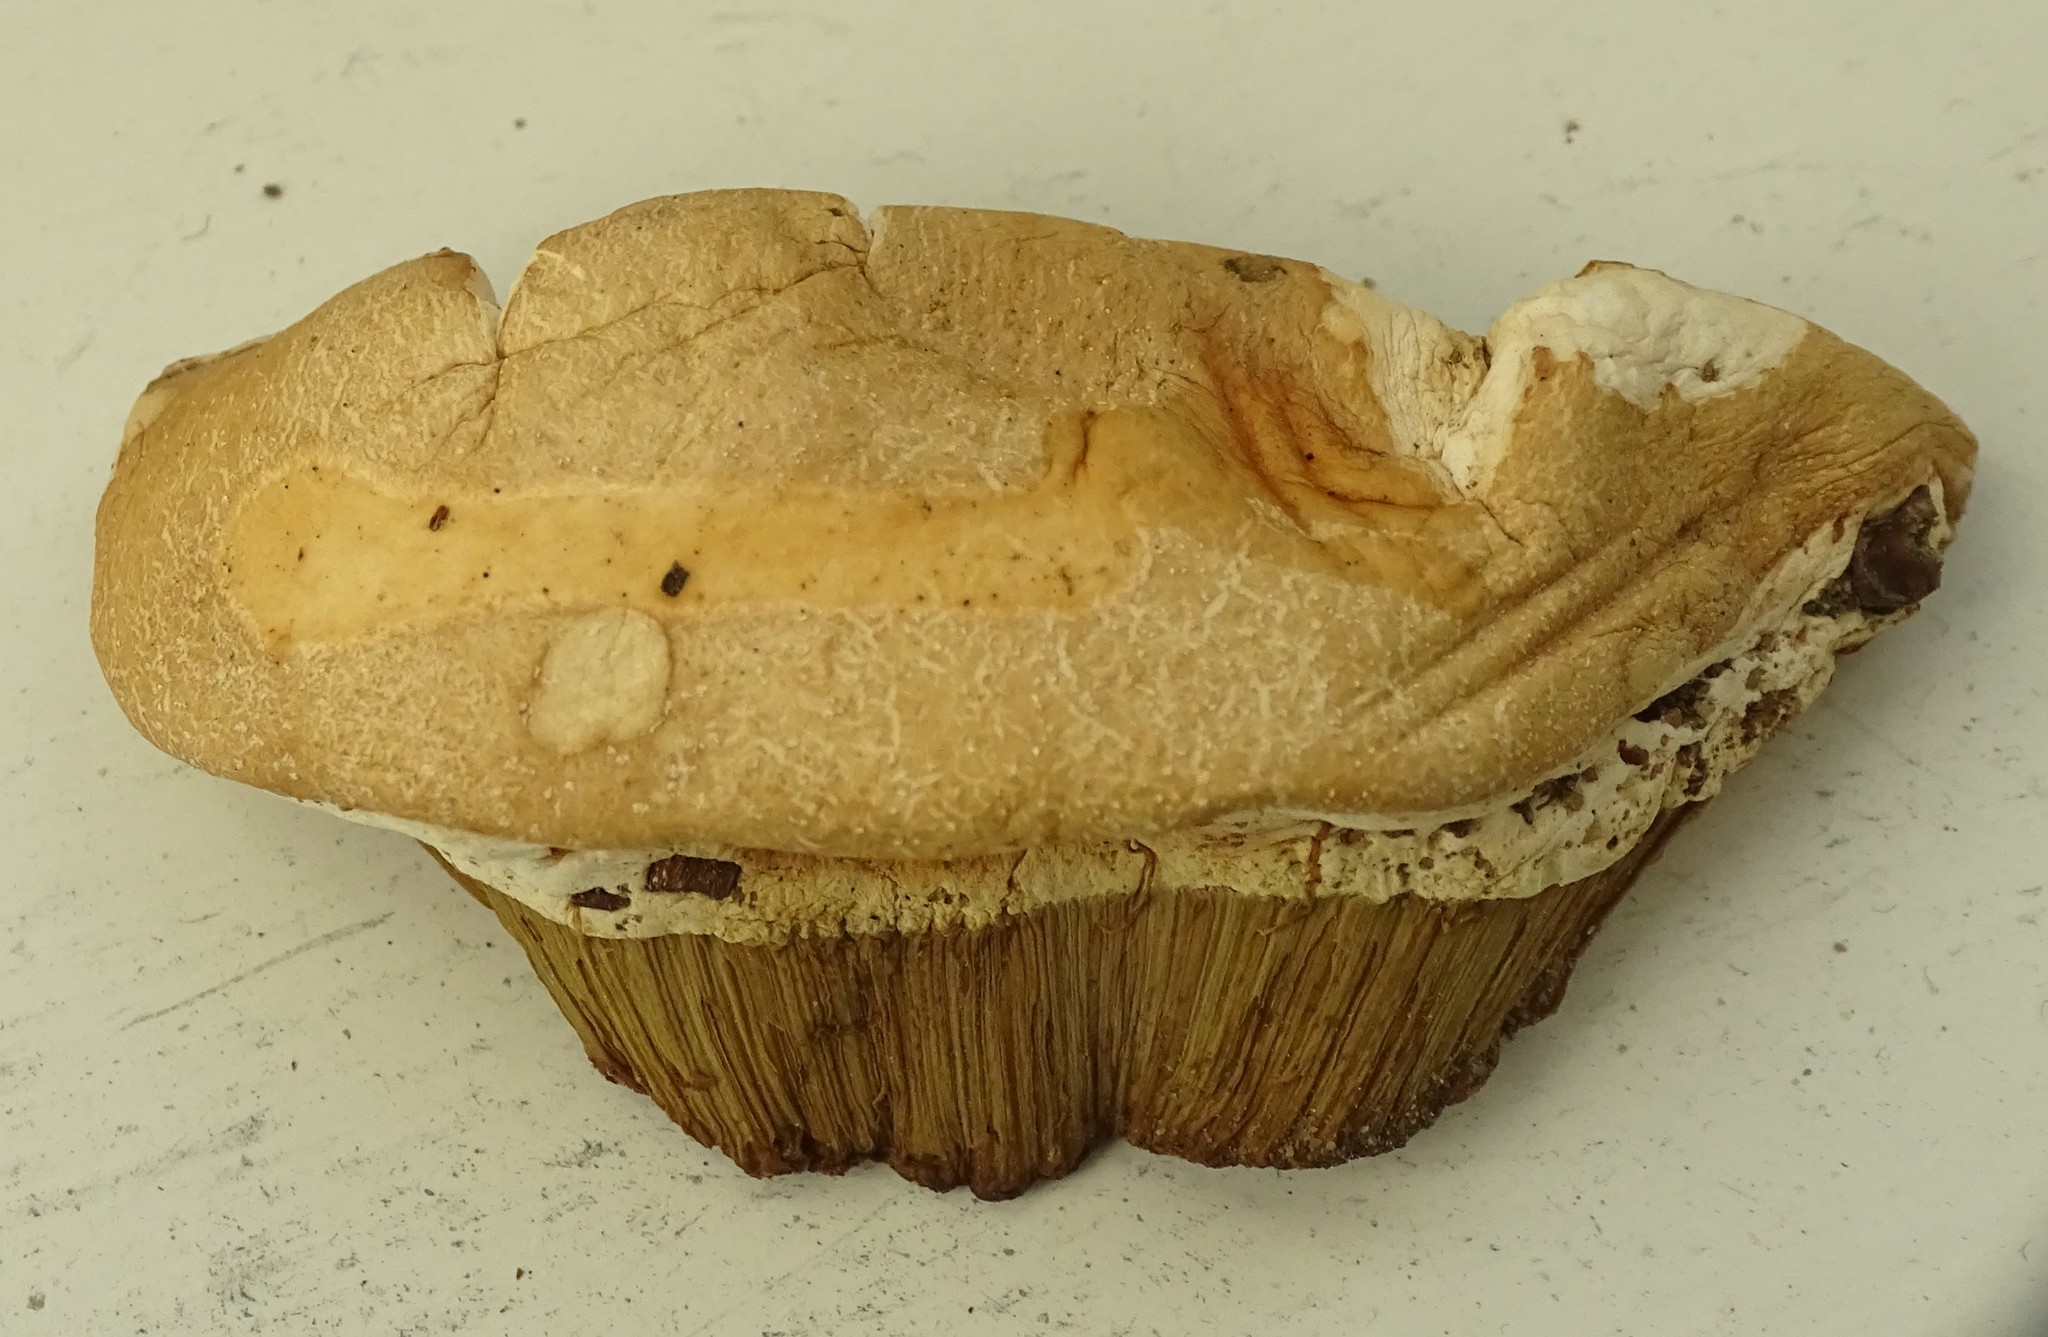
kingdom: Fungi
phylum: Basidiomycota
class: Agaricomycetes
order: Boletales
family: Suillaceae
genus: Suillus
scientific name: Suillus granulatus
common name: Weeping bolete
